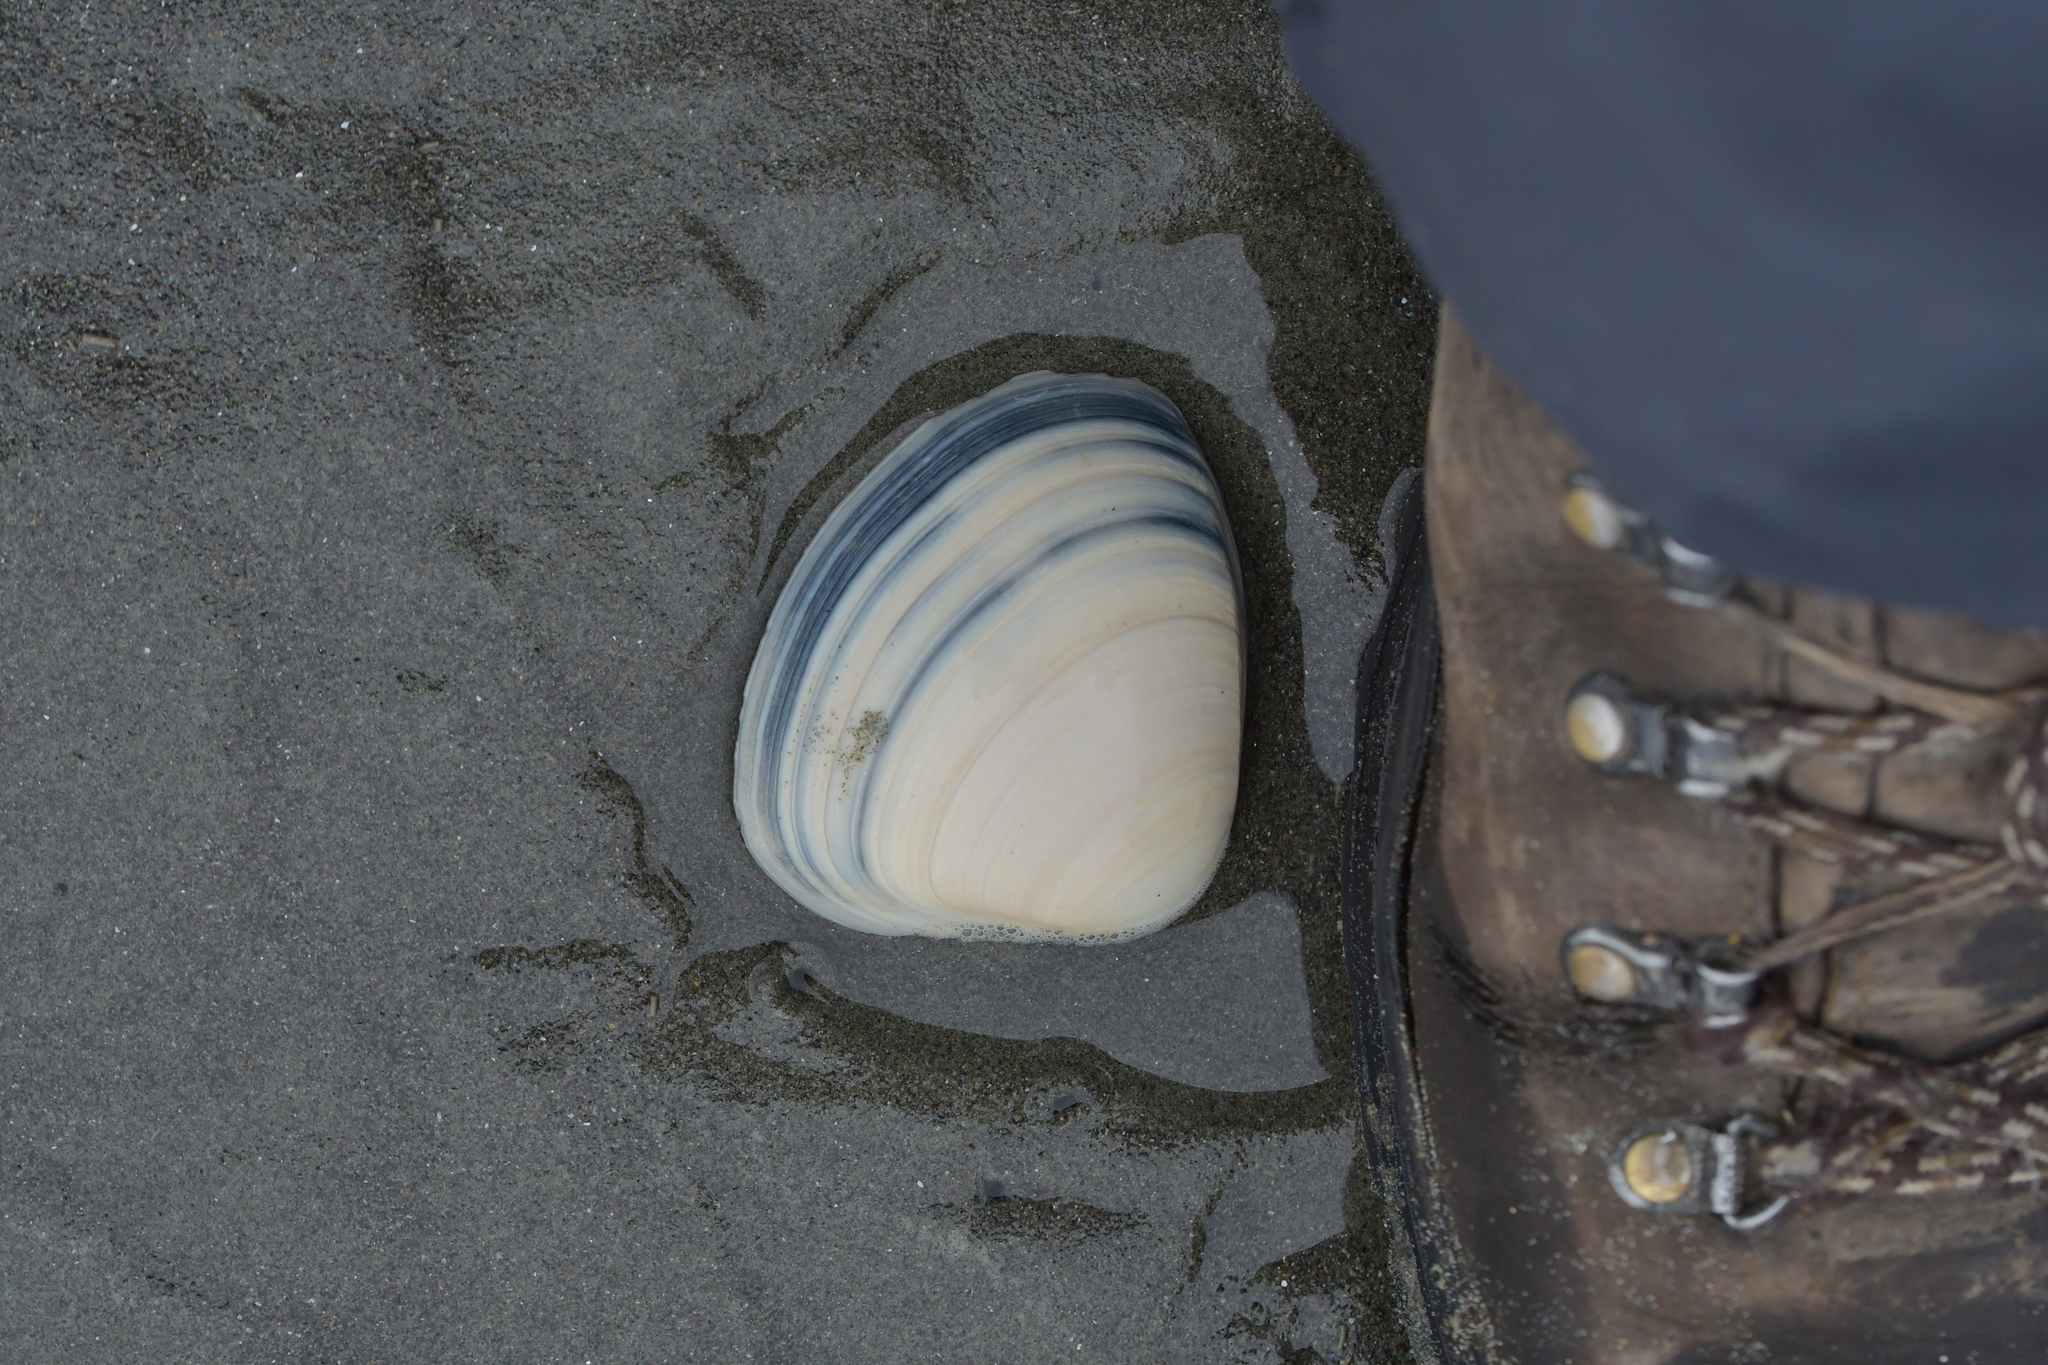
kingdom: Animalia
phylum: Mollusca
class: Bivalvia
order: Venerida
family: Mactridae
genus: Spisula
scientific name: Spisula discors
